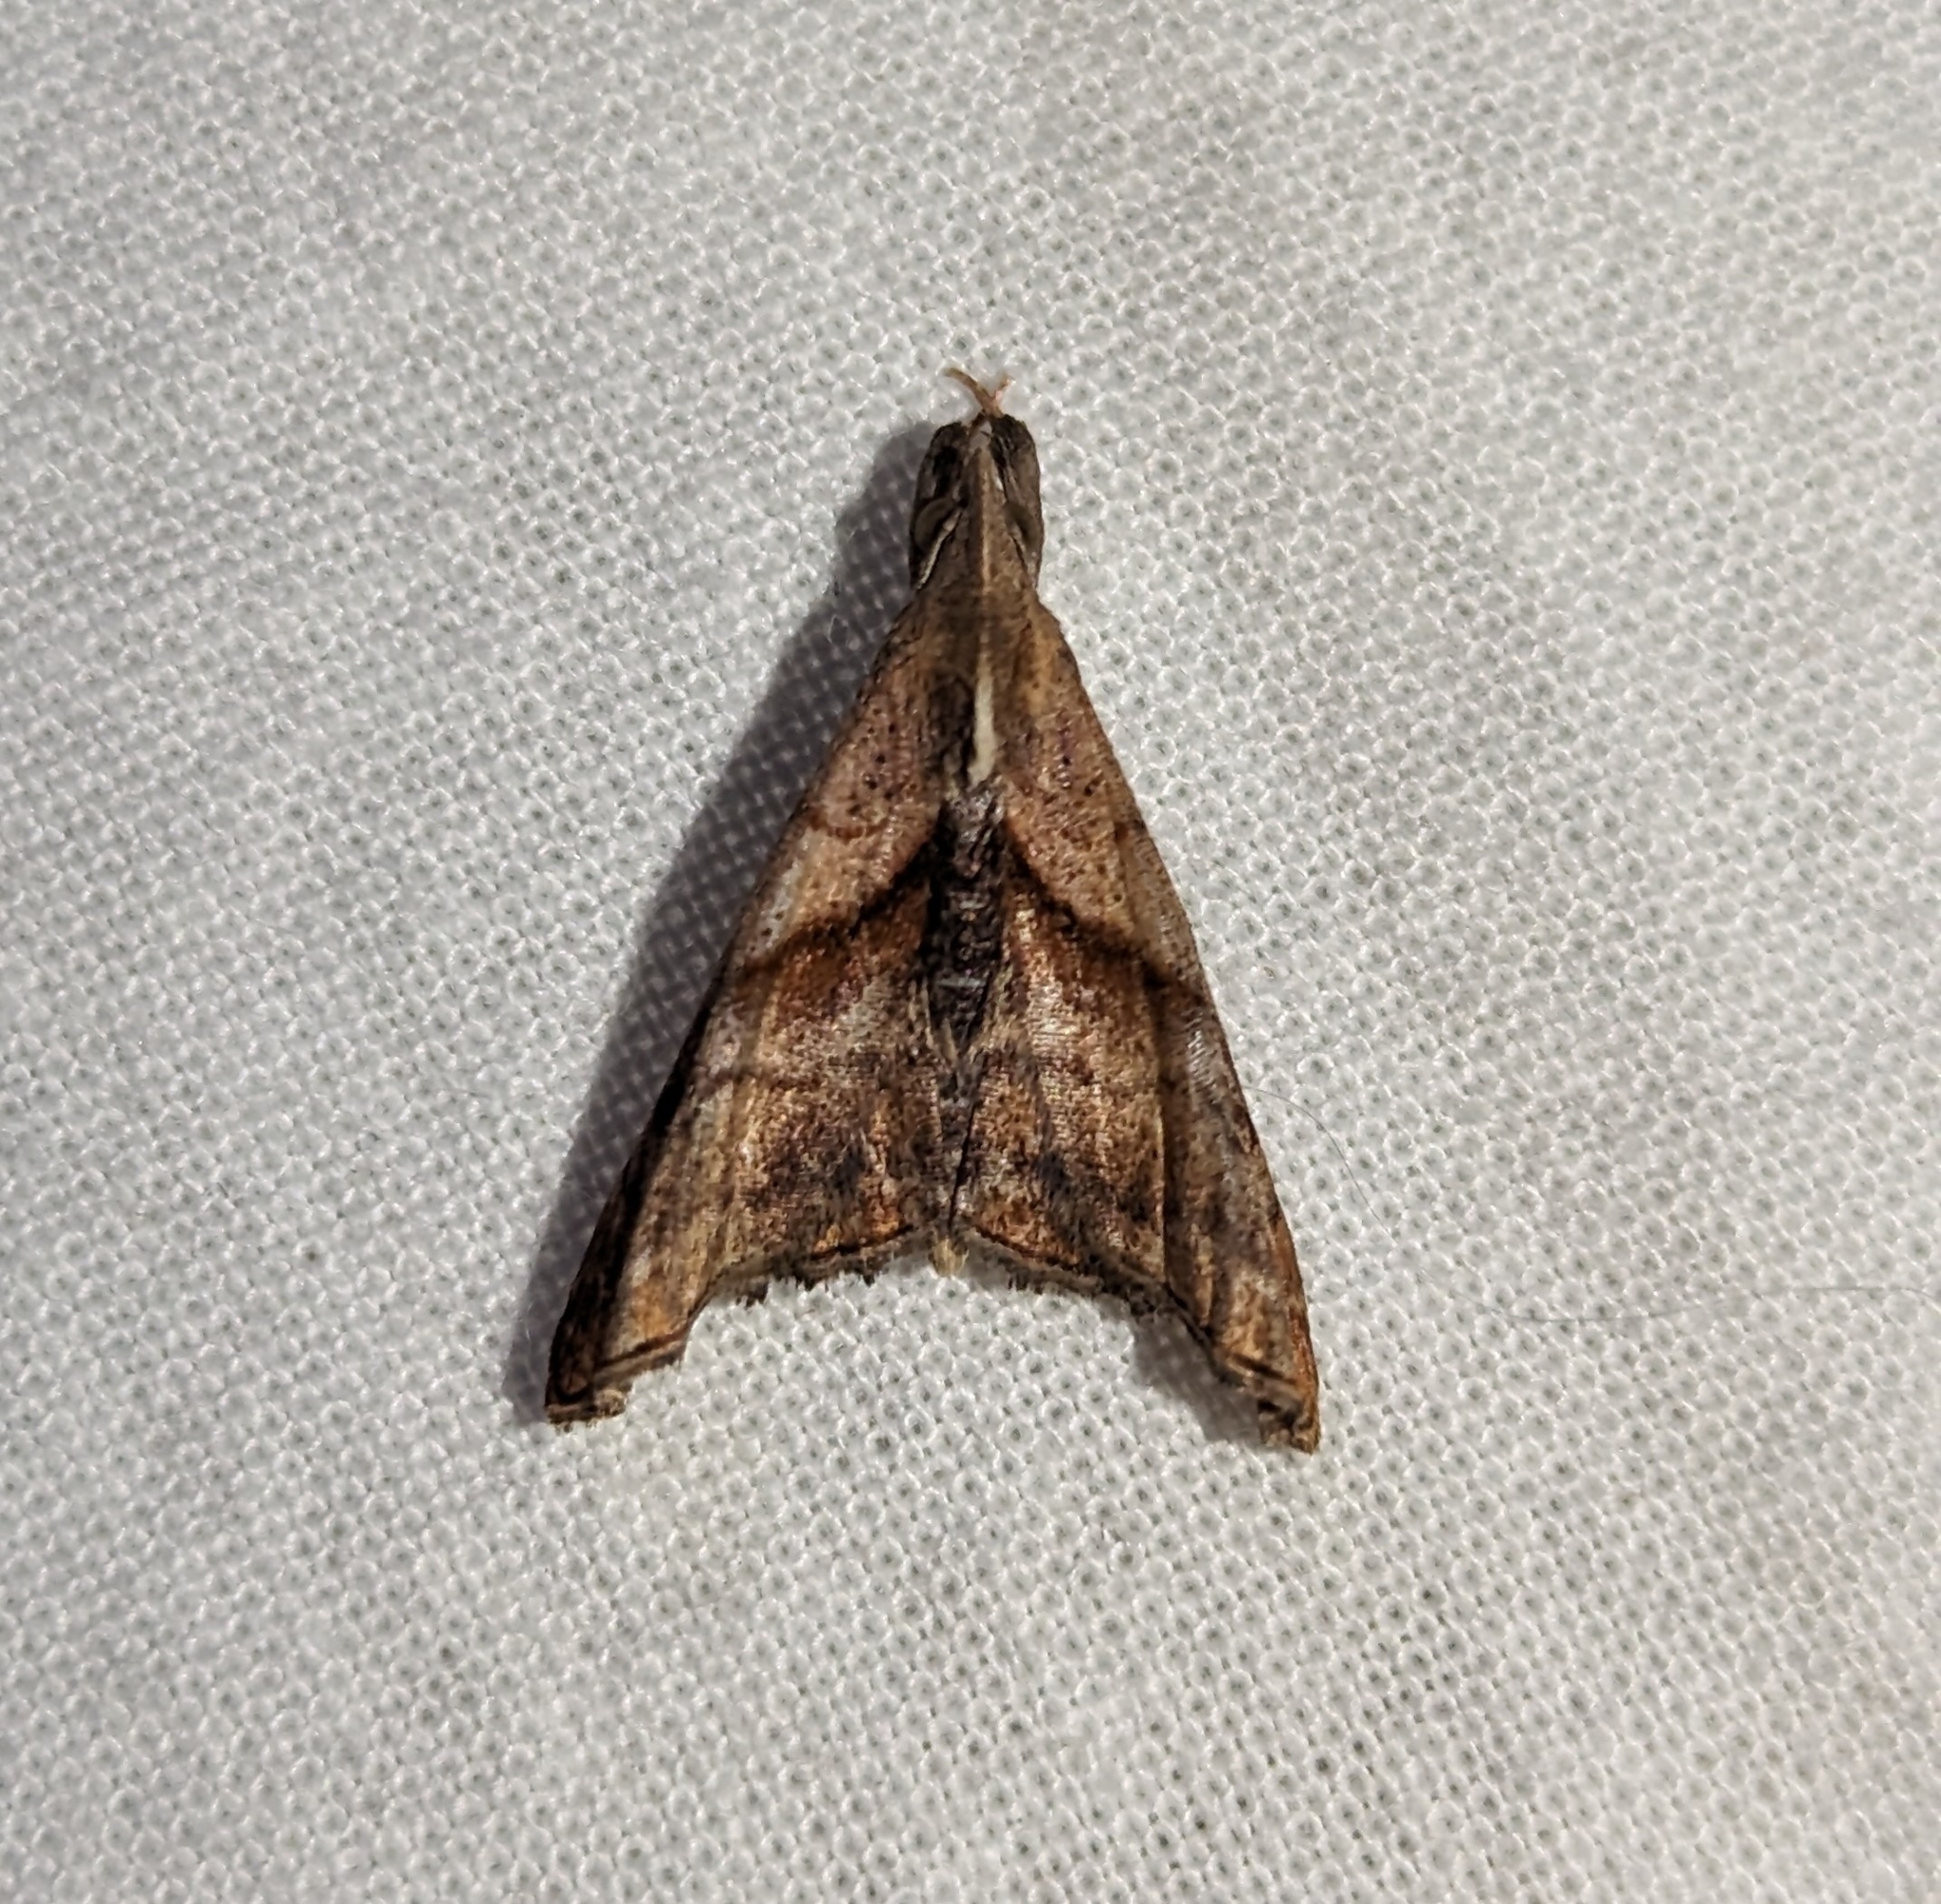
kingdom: Animalia
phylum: Arthropoda
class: Insecta
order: Lepidoptera
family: Erebidae
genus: Palthis
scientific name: Palthis angulalis
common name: Dark-spotted palthis moth
